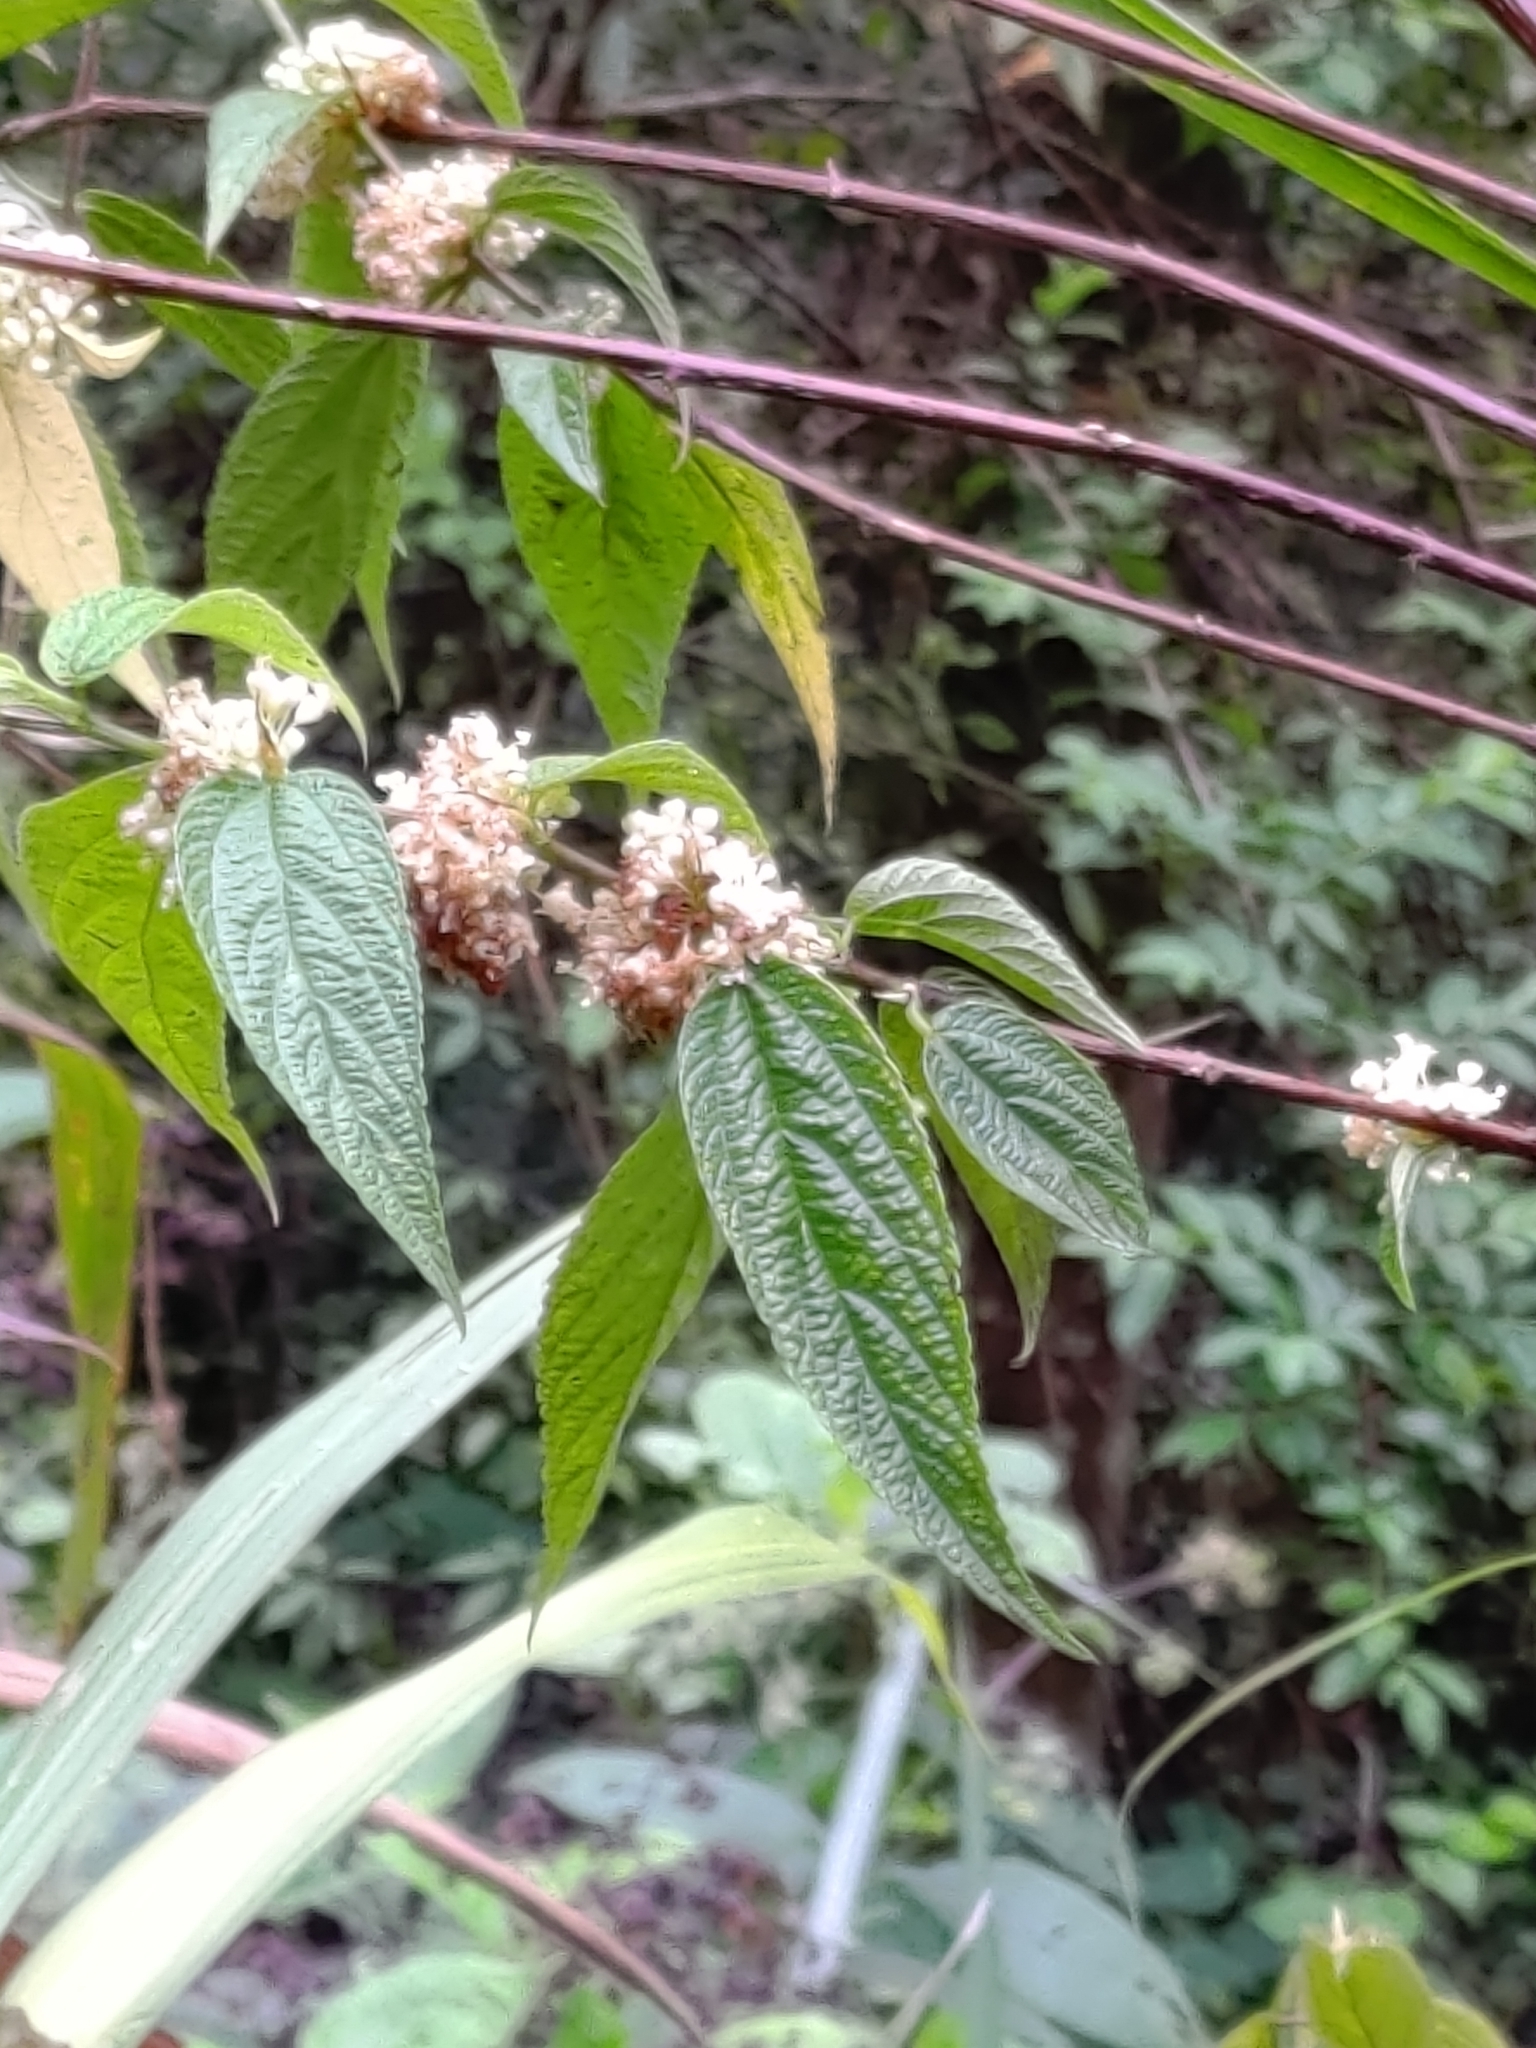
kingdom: Plantae
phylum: Tracheophyta
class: Magnoliopsida
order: Rosales
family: Urticaceae
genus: Boehmeria
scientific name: Boehmeria zollingeriana
